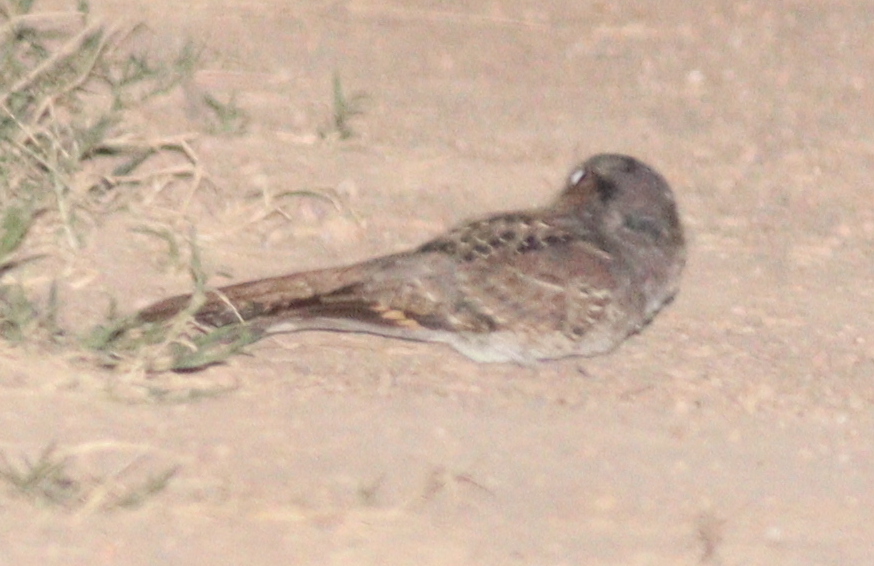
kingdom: Animalia
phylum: Chordata
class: Aves
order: Caprimulgiformes
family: Caprimulgidae
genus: Nyctidromus
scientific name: Nyctidromus albicollis
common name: Pauraque
